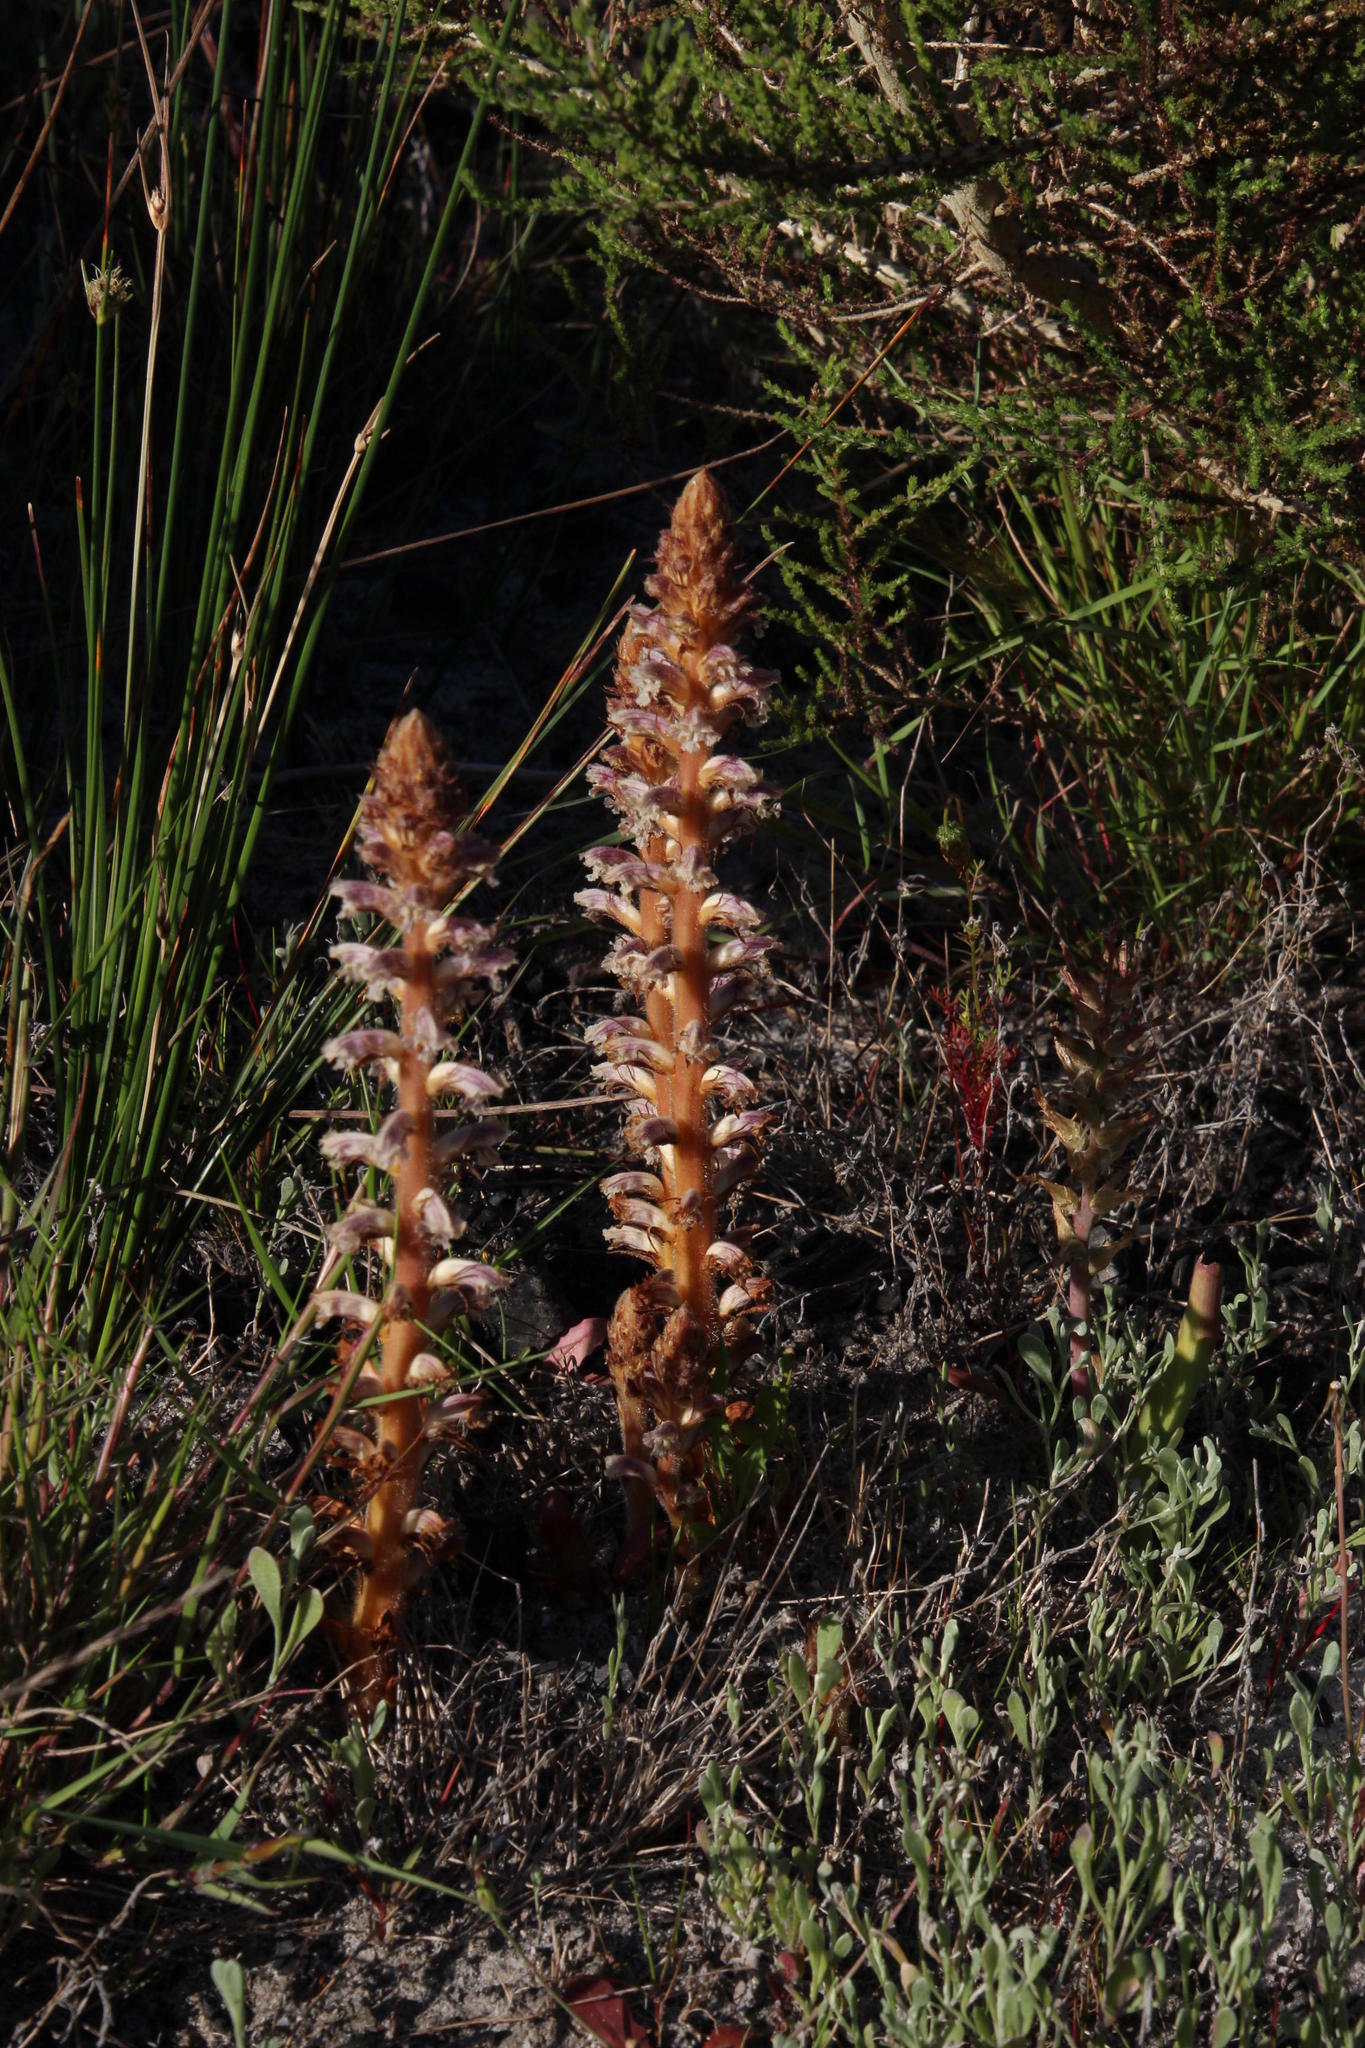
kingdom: Plantae
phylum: Tracheophyta
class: Magnoliopsida
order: Lamiales
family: Orobanchaceae
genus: Orobanche
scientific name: Orobanche minor
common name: Common broomrape
